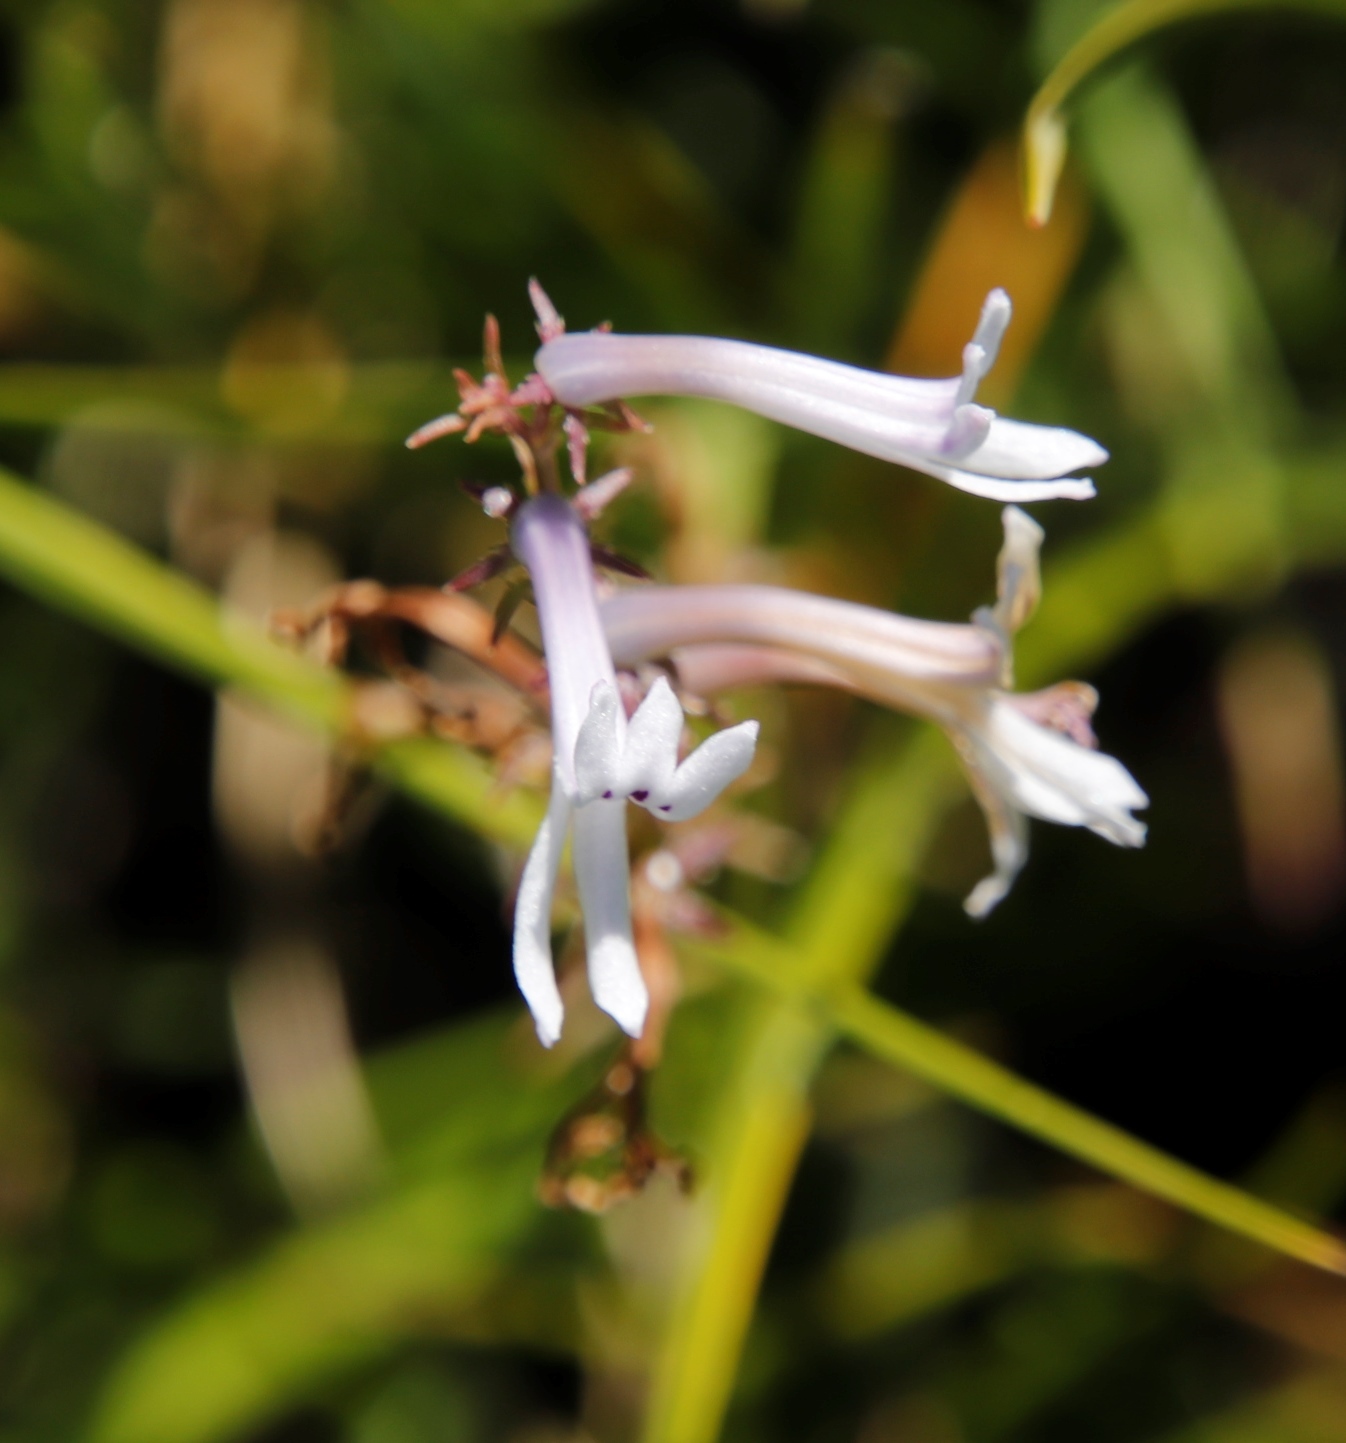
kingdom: Plantae
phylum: Tracheophyta
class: Magnoliopsida
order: Asterales
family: Campanulaceae
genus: Cyphia
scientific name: Cyphia tysonii
